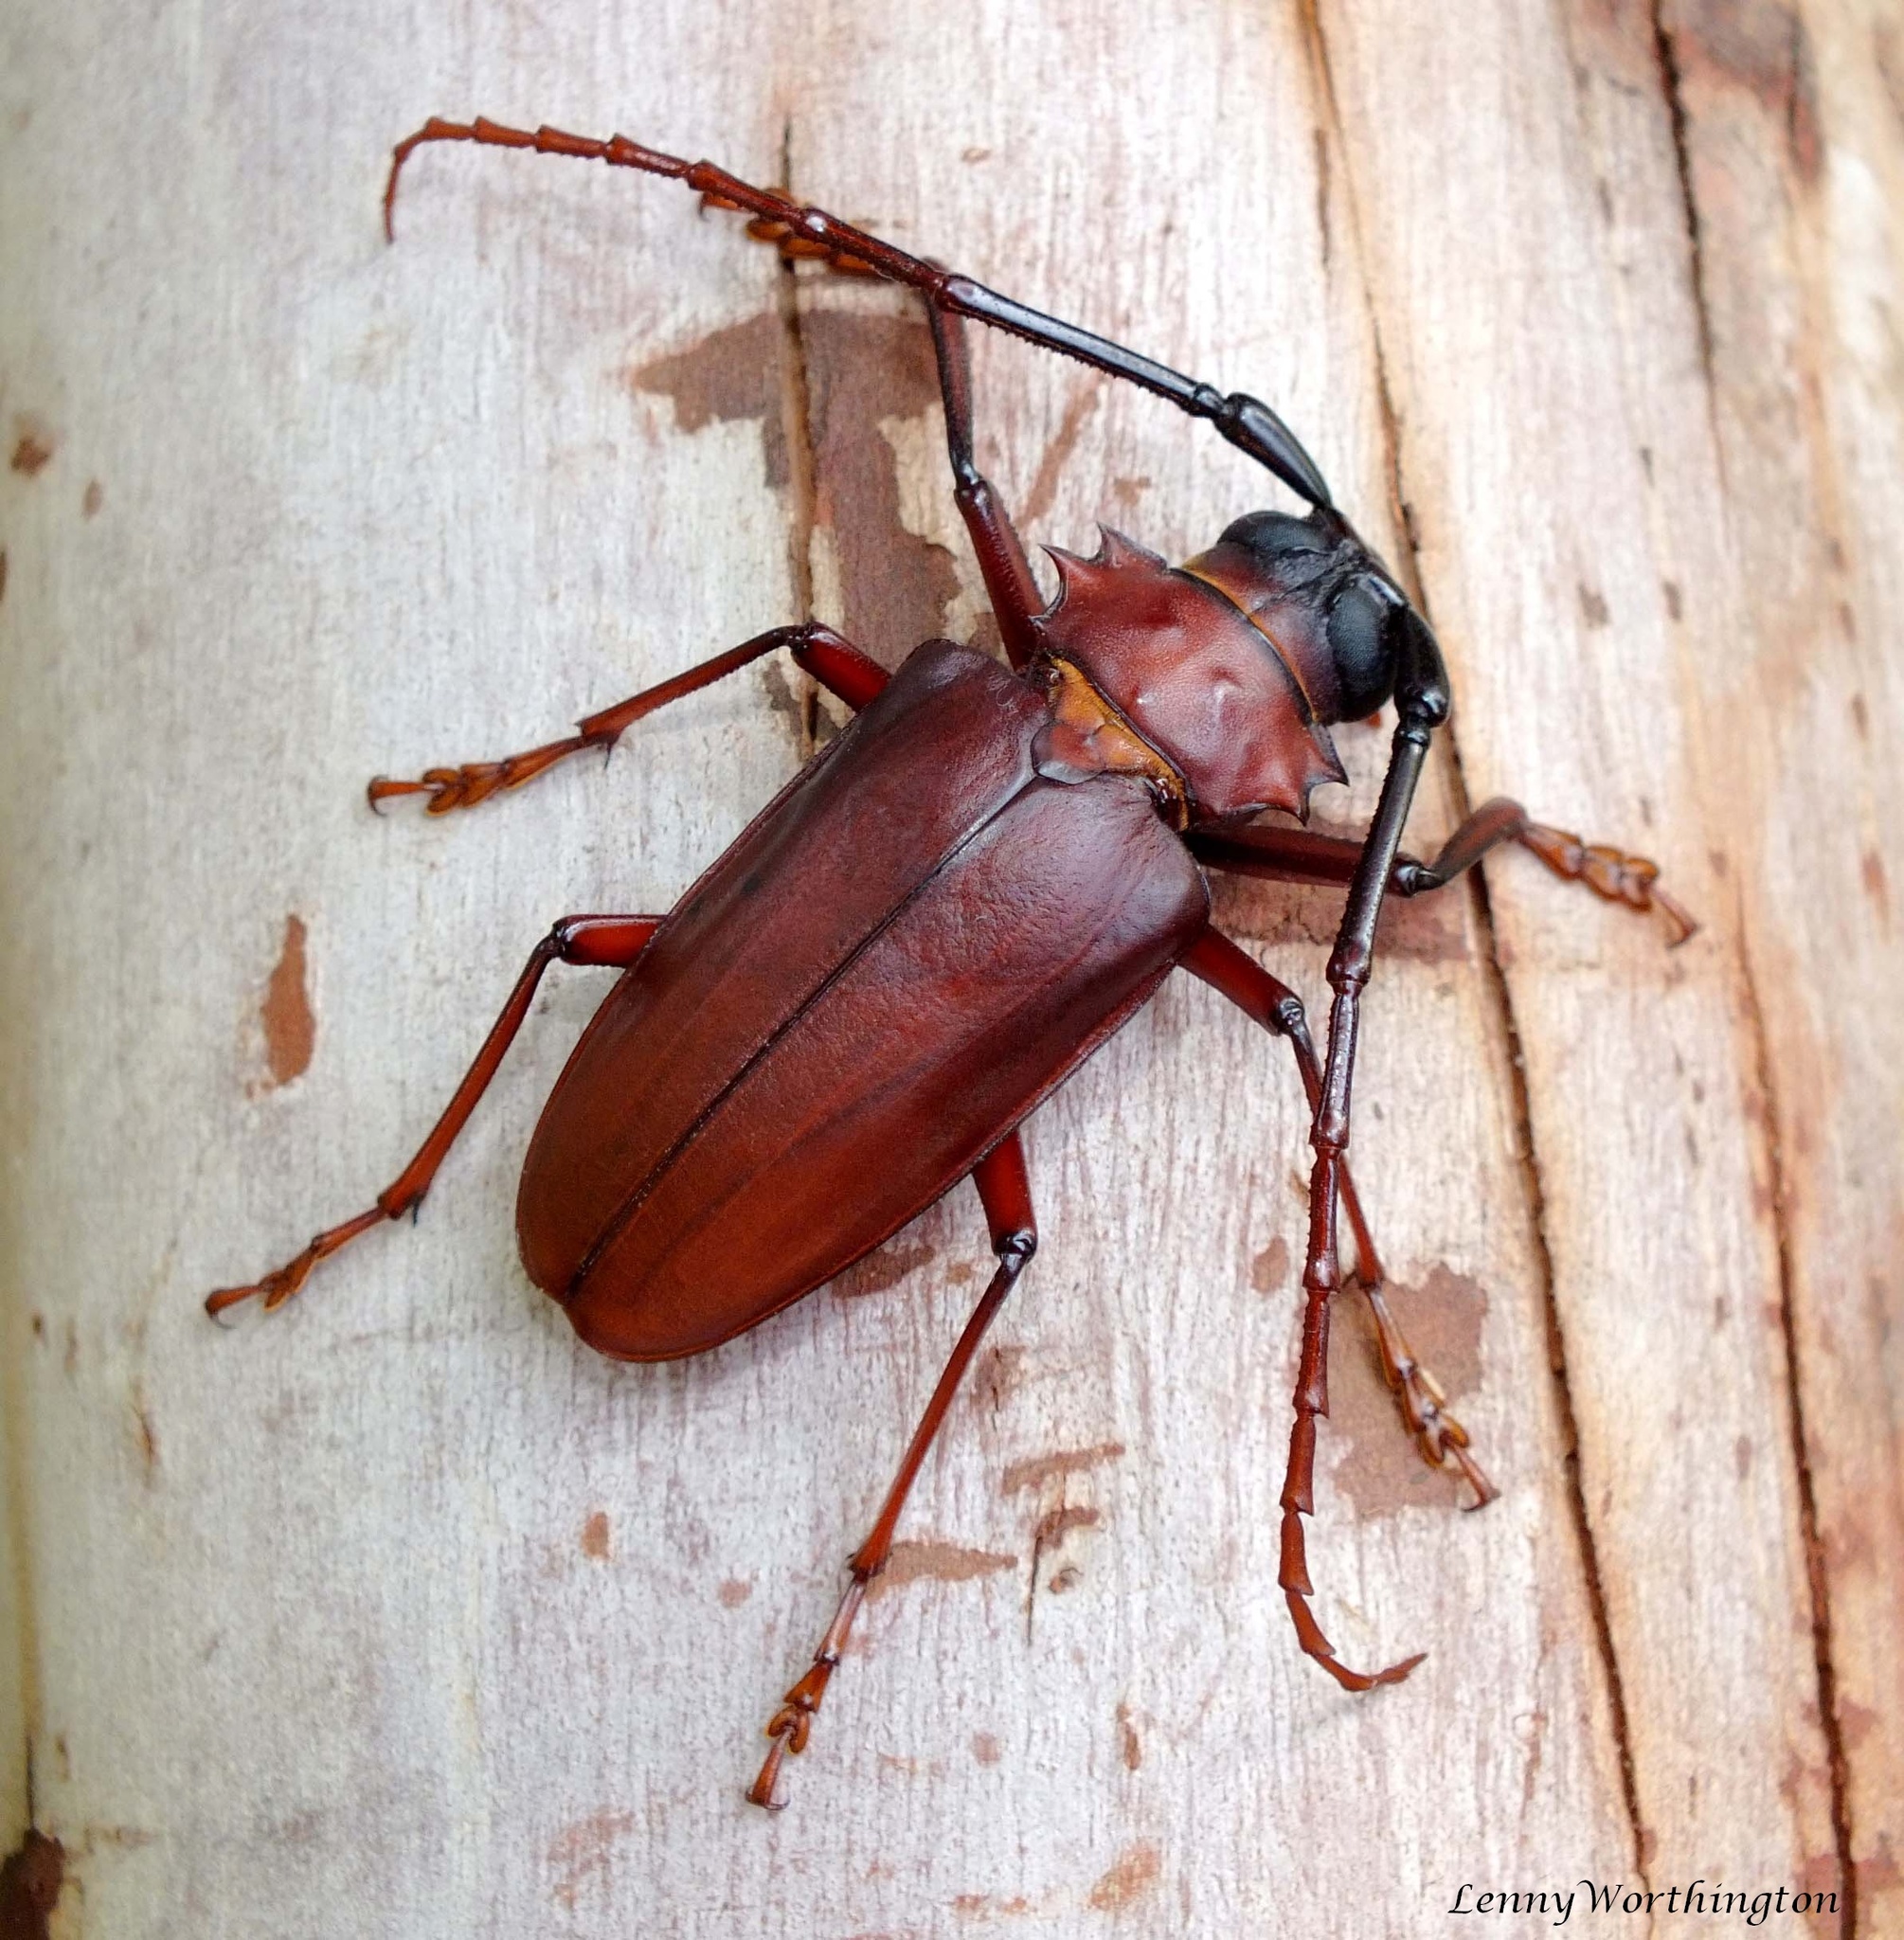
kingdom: Animalia
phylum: Arthropoda
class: Insecta
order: Coleoptera
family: Cerambycidae
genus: Dorysthenes
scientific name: Dorysthenes granulosus
